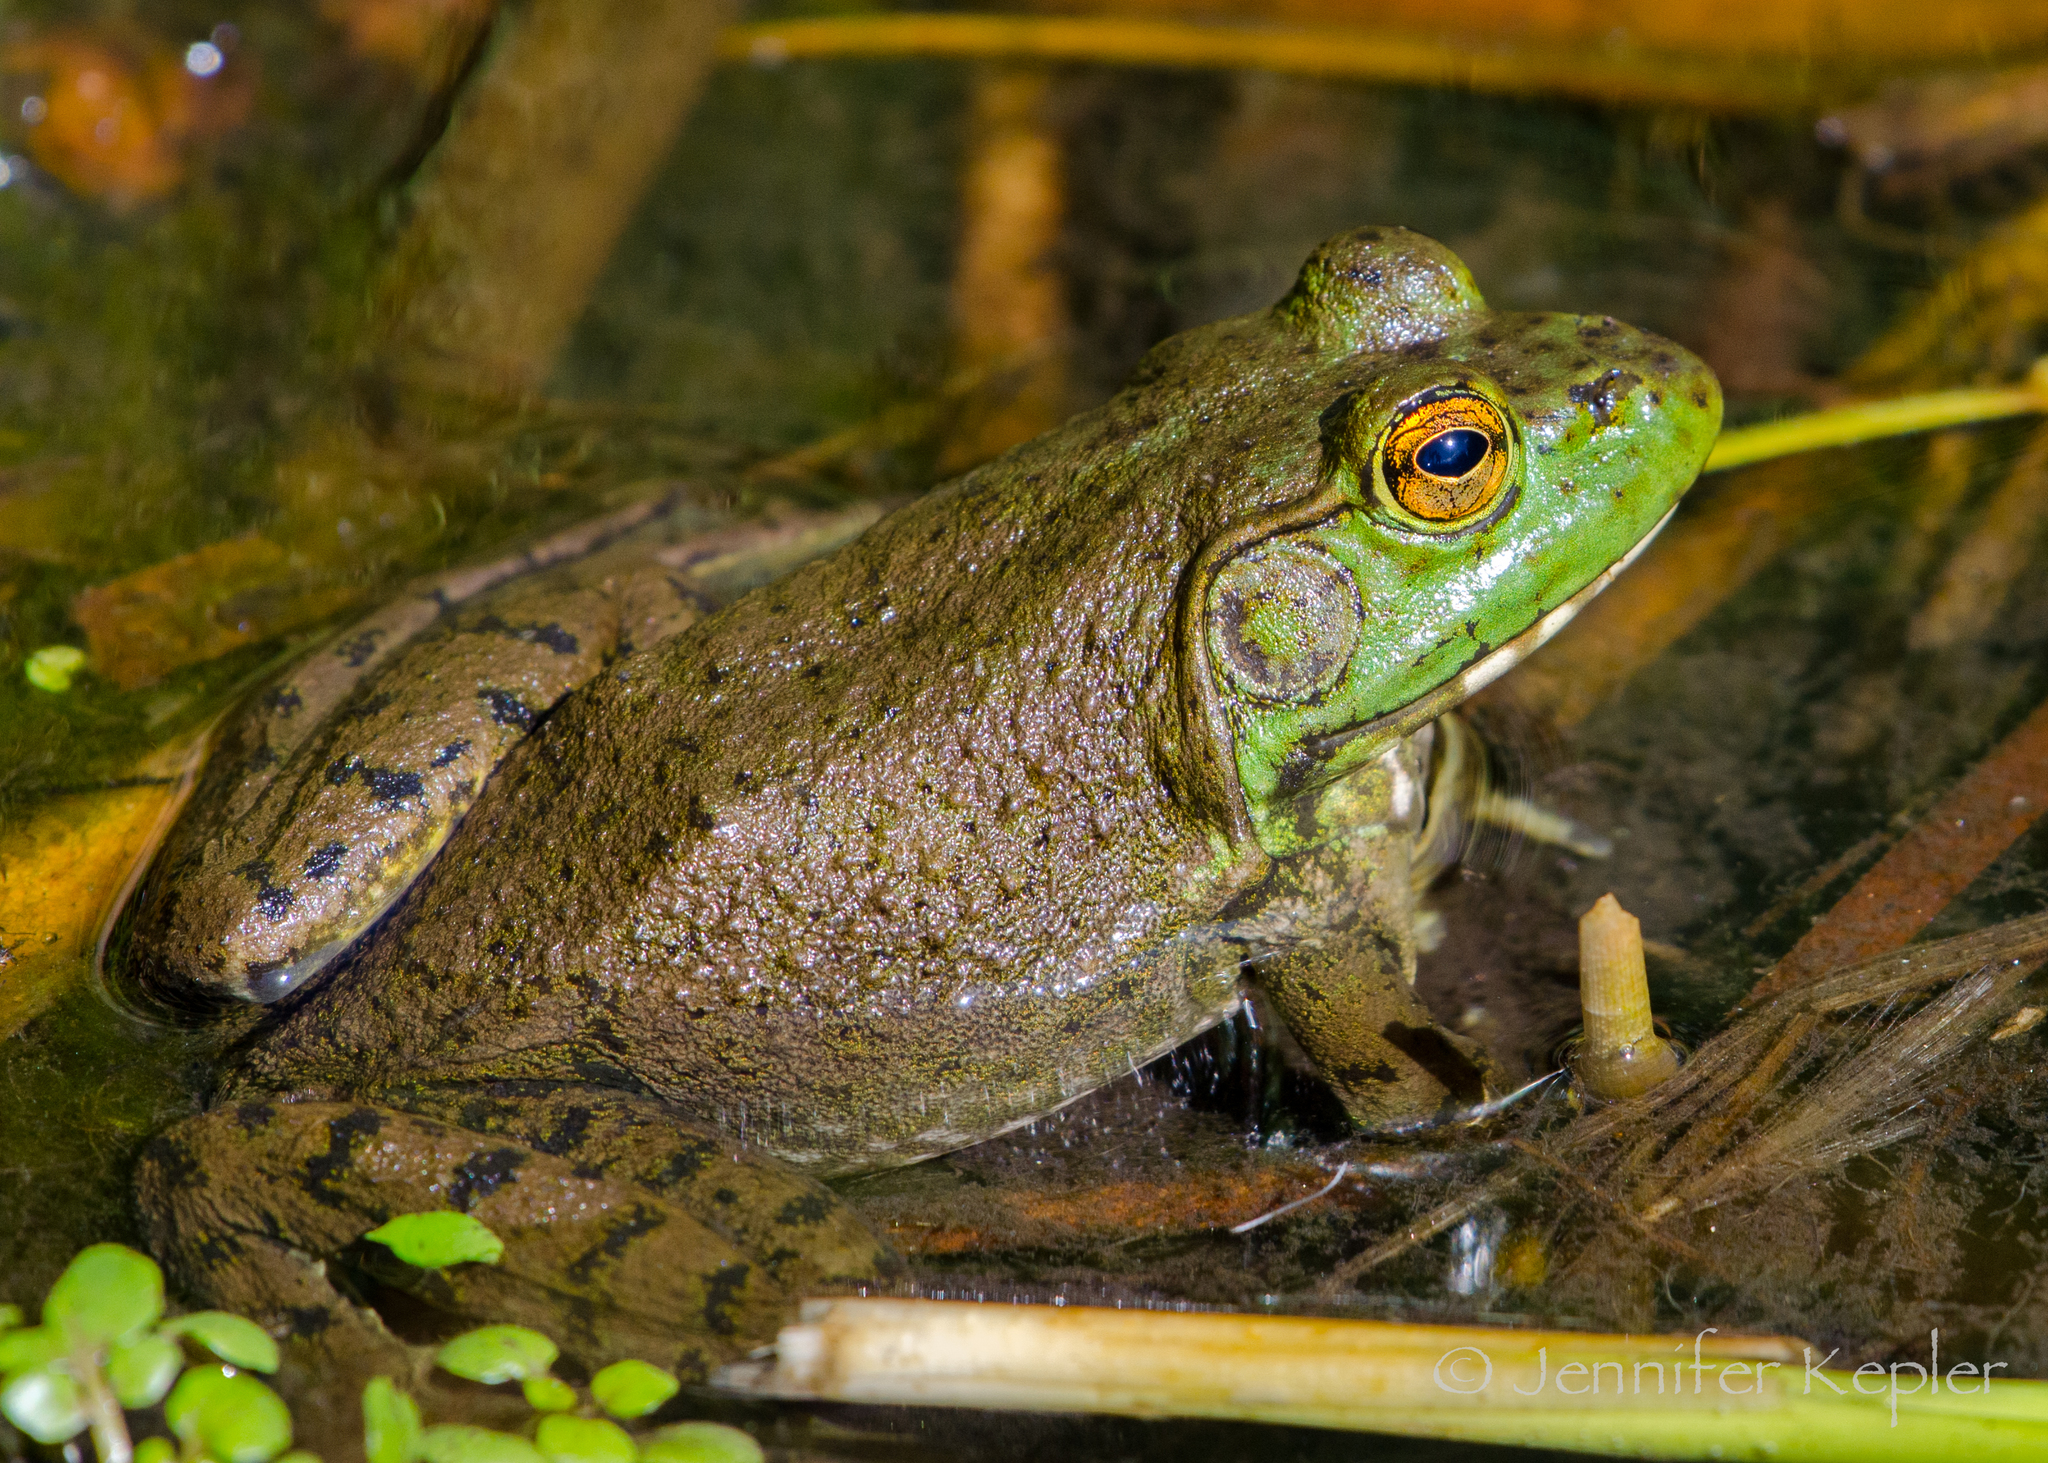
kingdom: Animalia
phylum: Chordata
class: Amphibia
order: Anura
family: Ranidae
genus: Lithobates
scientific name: Lithobates catesbeianus
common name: American bullfrog
